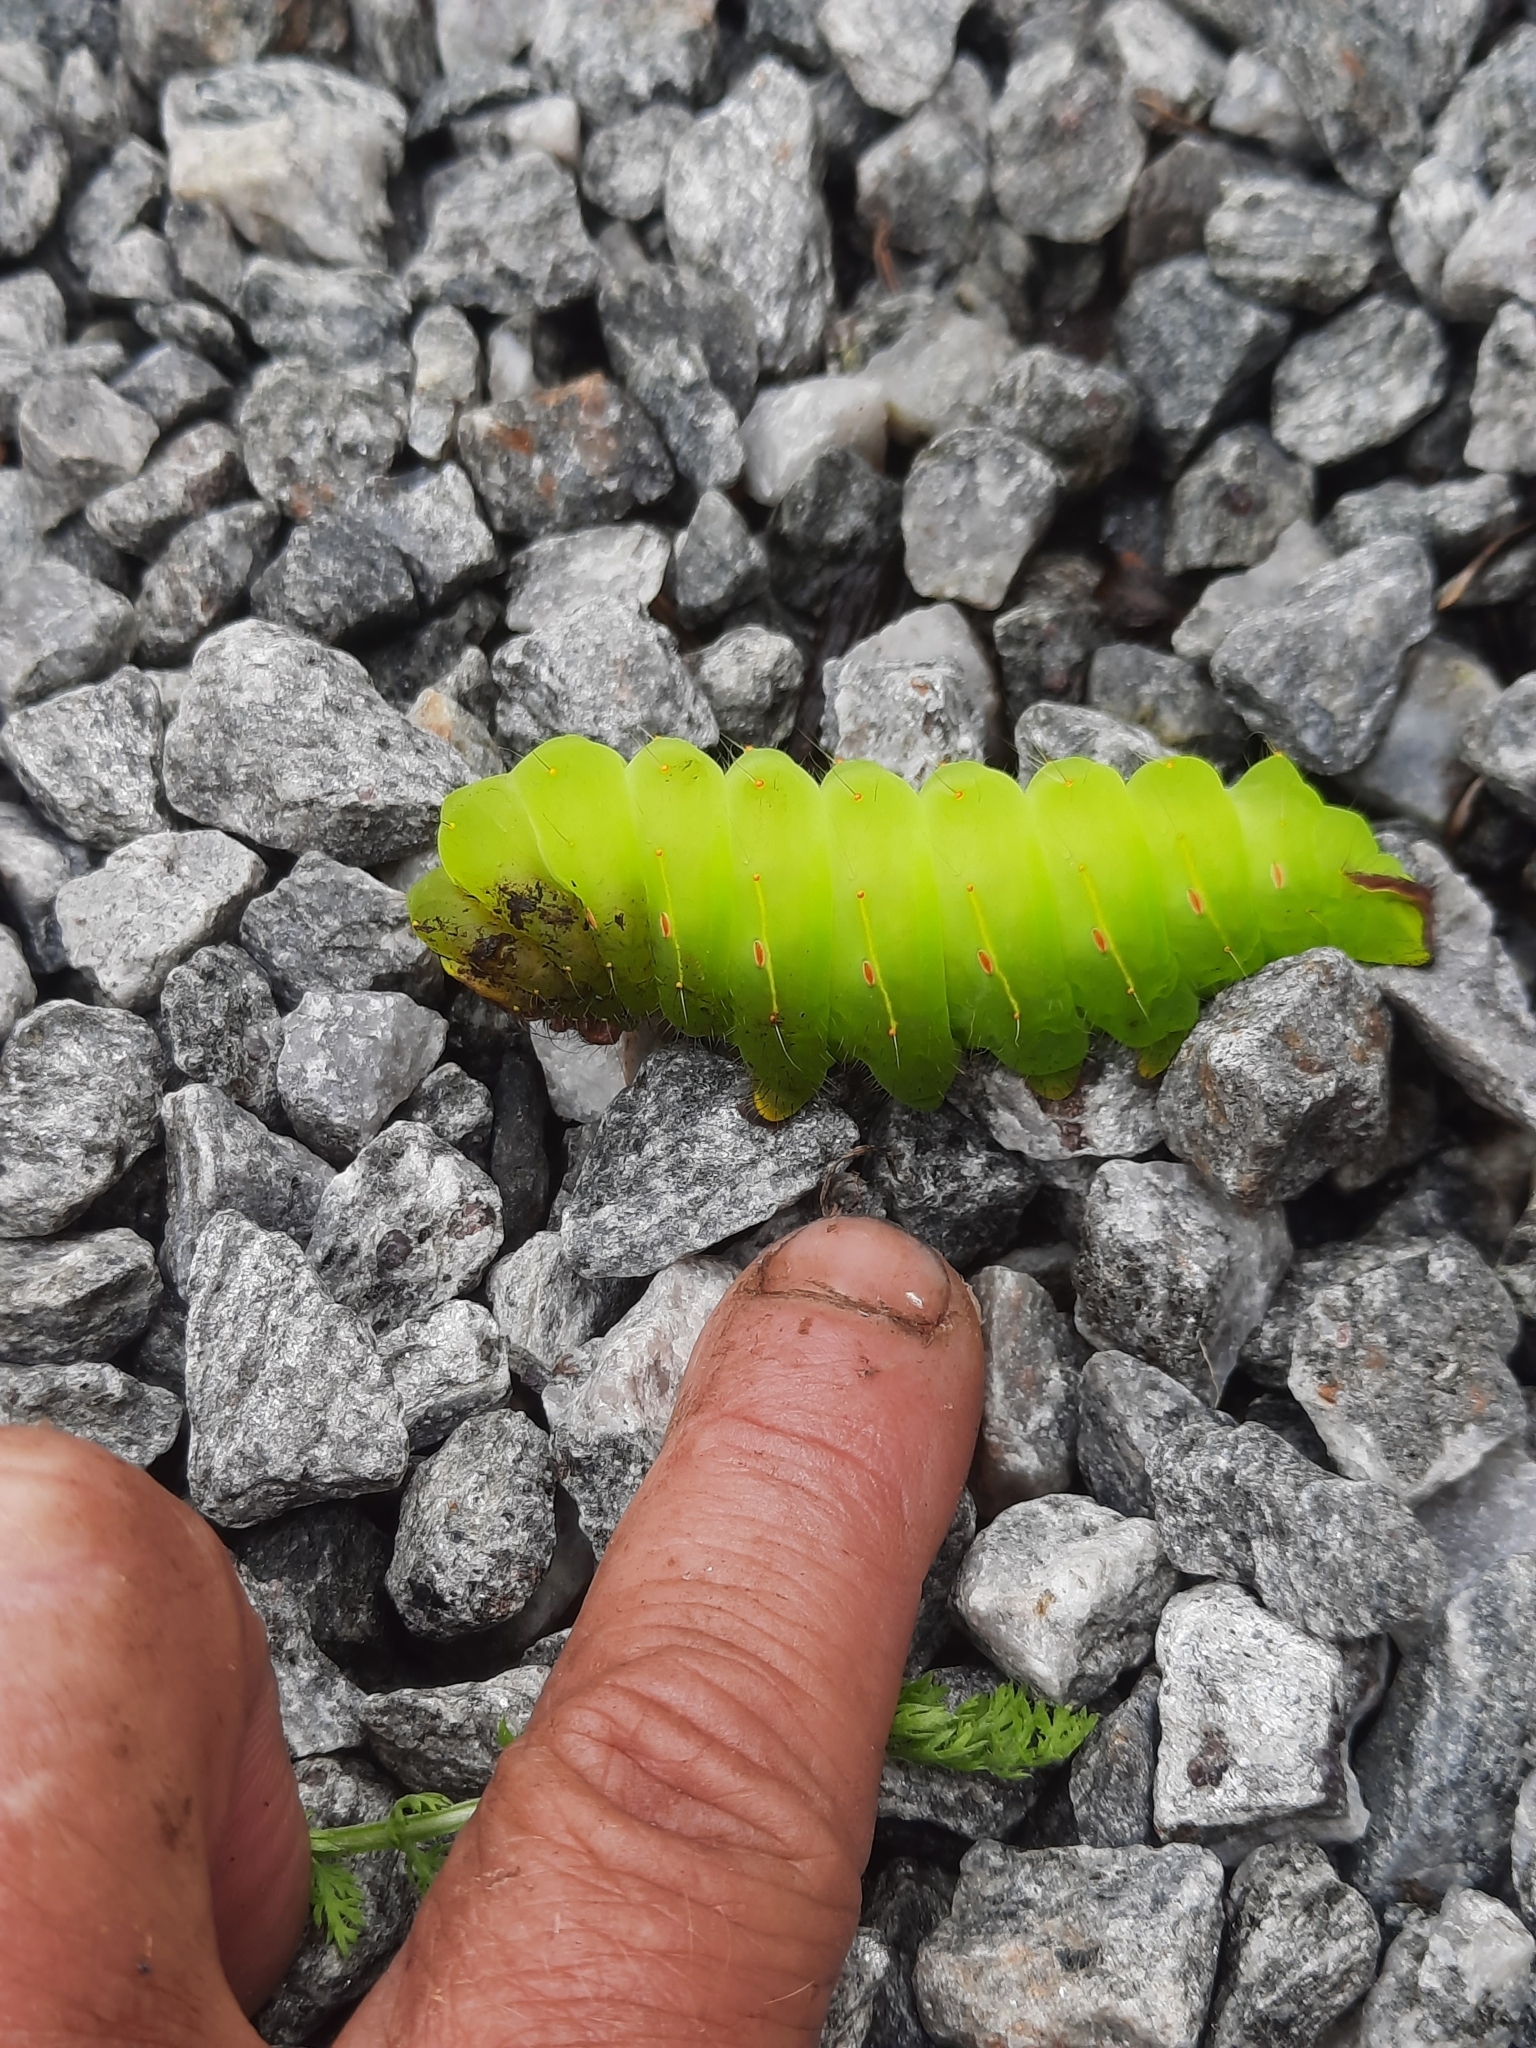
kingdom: Animalia
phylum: Arthropoda
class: Insecta
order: Lepidoptera
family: Saturniidae
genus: Antheraea
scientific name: Antheraea polyphemus
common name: Polyphemus moth
